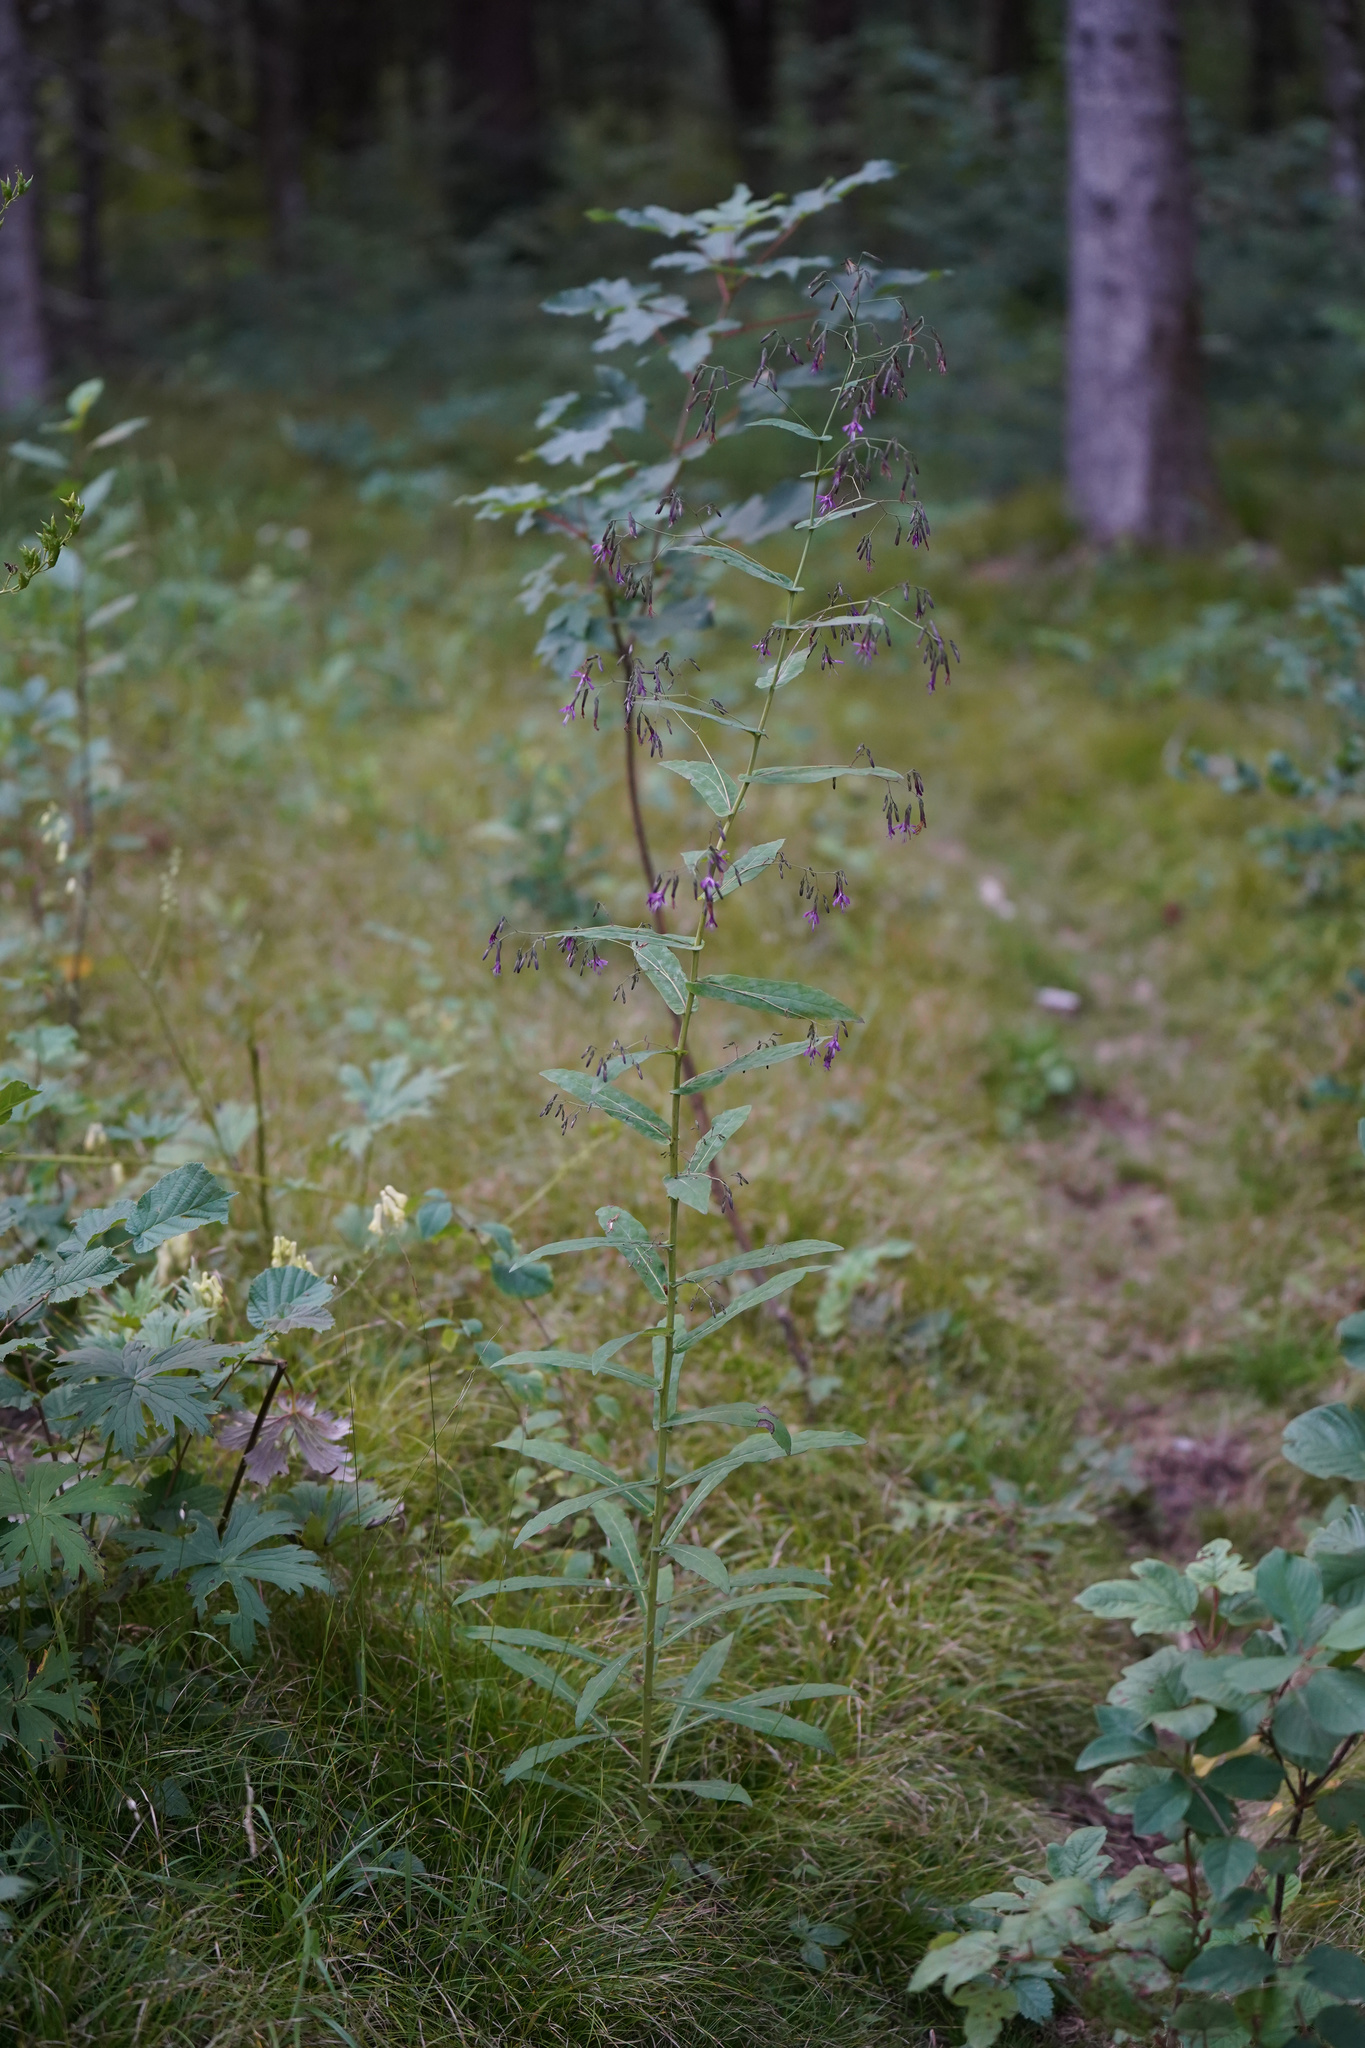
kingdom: Plantae
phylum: Tracheophyta
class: Magnoliopsida
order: Asterales
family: Asteraceae
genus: Prenanthes
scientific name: Prenanthes purpurea
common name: Purple lettuce
